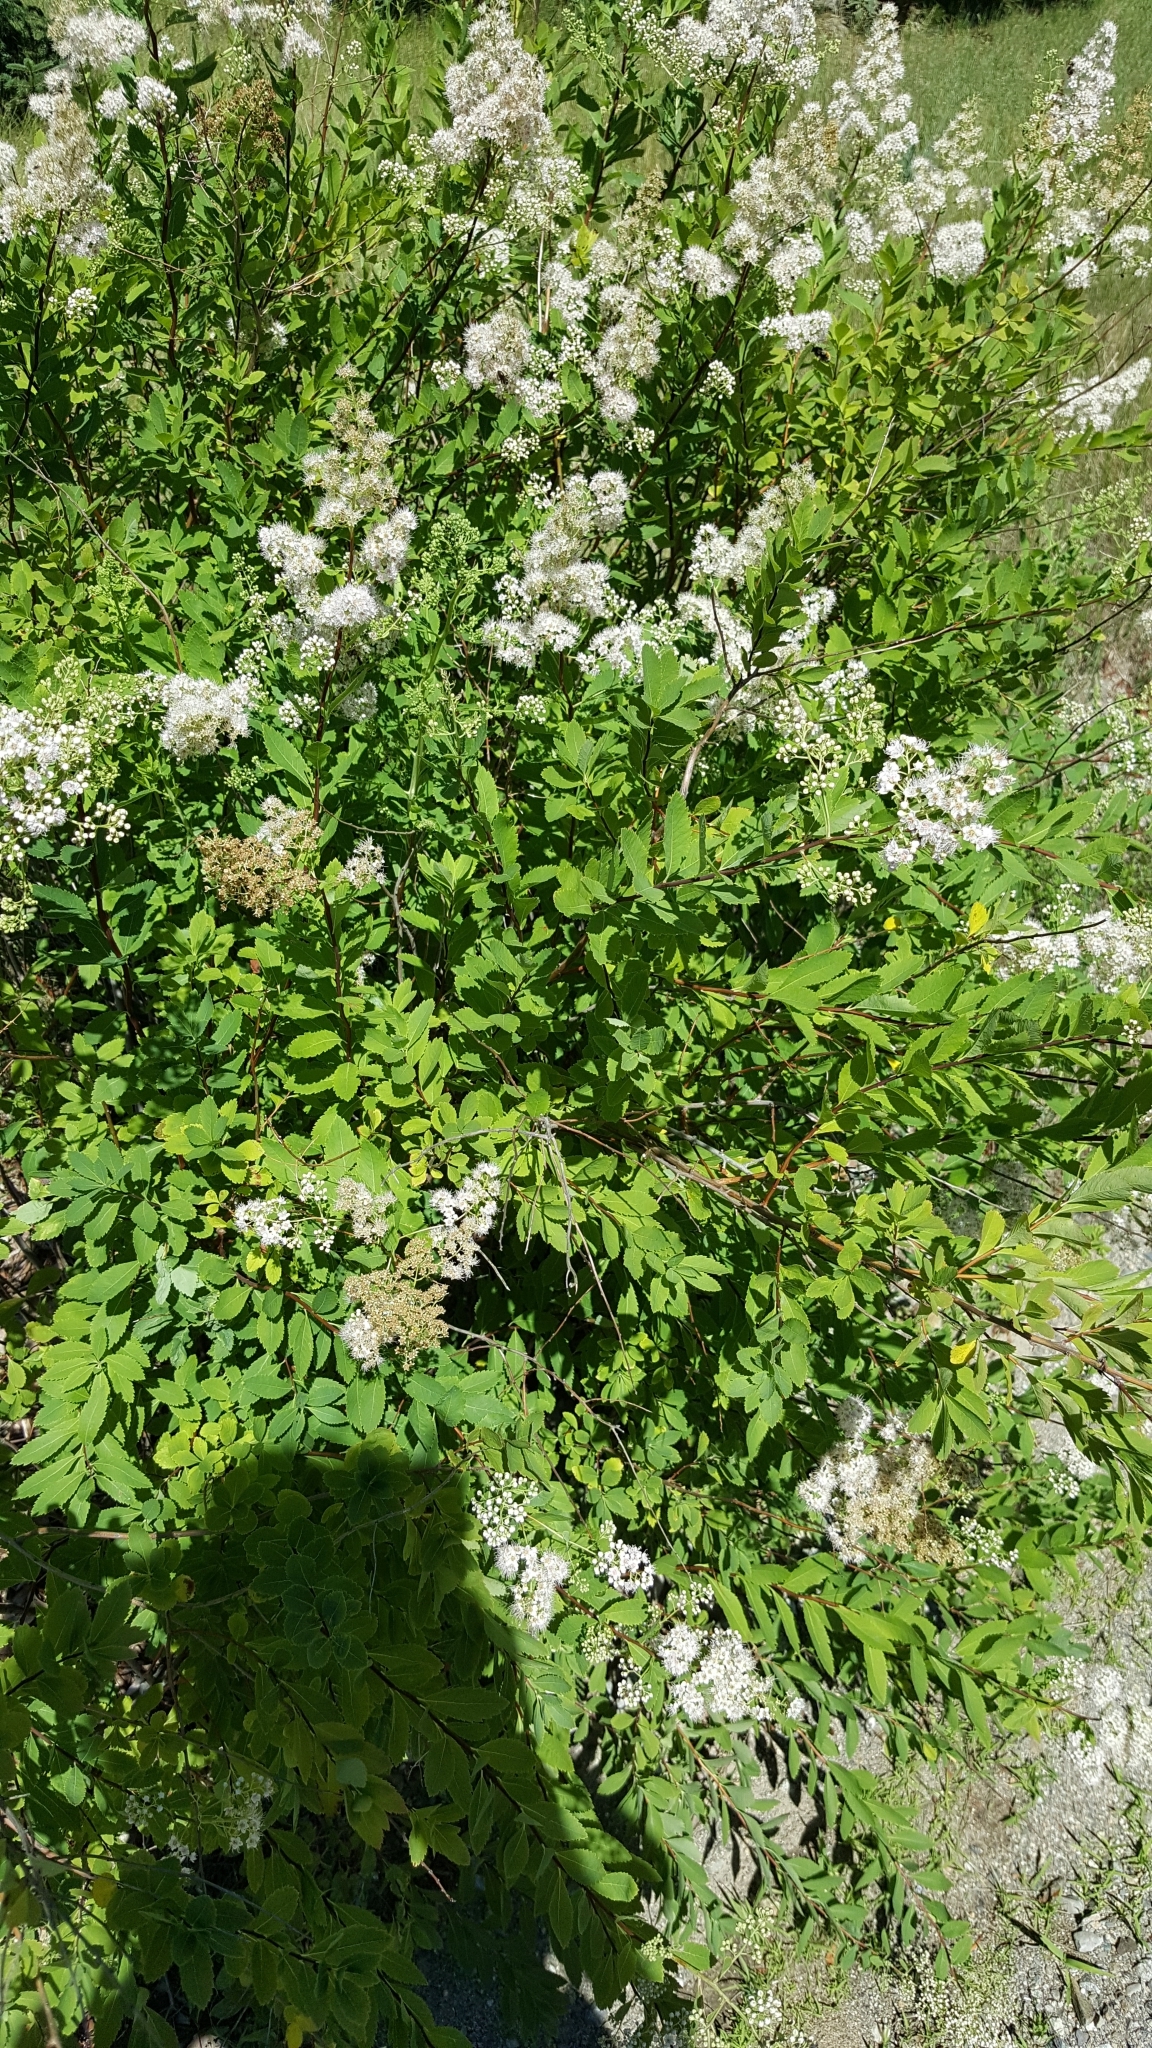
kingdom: Plantae
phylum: Tracheophyta
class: Magnoliopsida
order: Rosales
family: Rosaceae
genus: Spiraea
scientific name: Spiraea alba
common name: Pale bridewort
